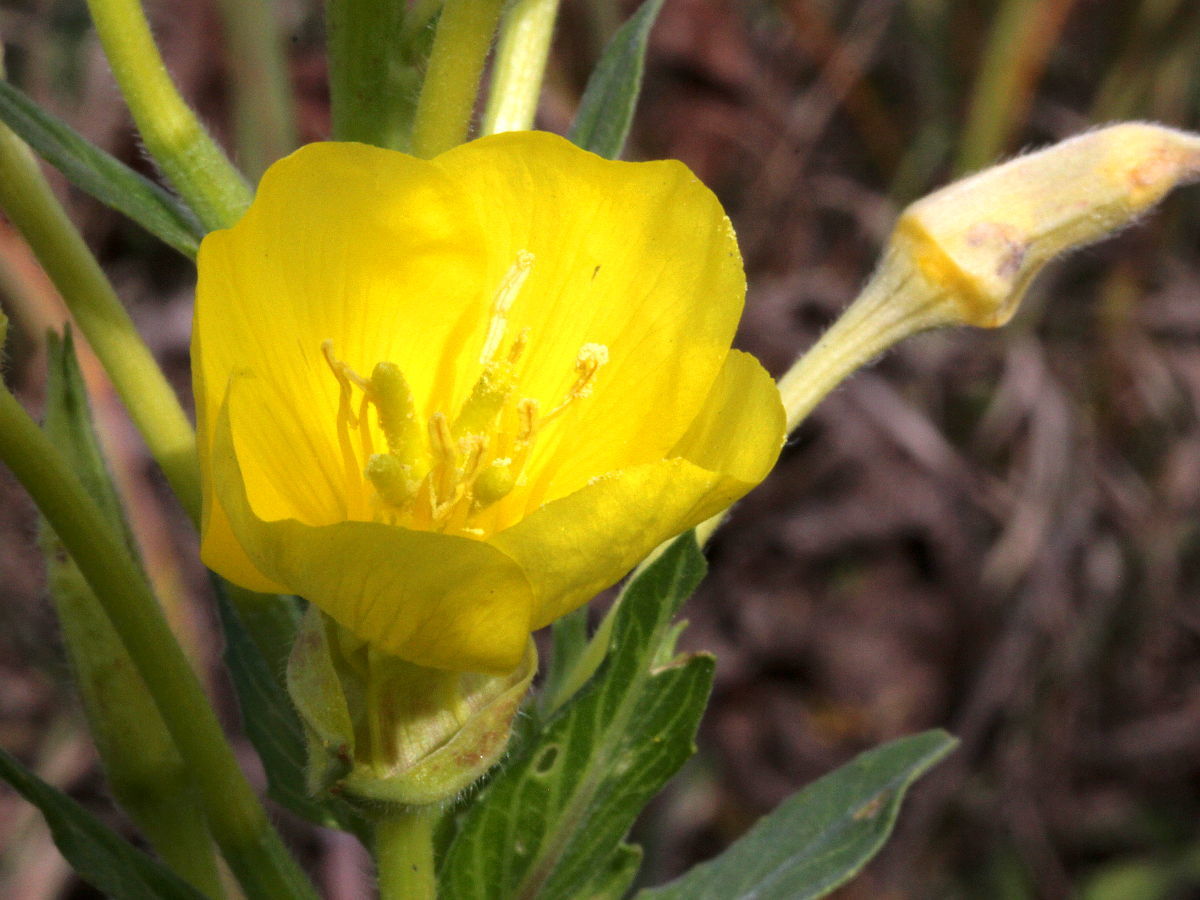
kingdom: Plantae
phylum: Tracheophyta
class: Magnoliopsida
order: Myrtales
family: Onagraceae
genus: Oenothera
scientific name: Oenothera biennis
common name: Common evening-primrose
